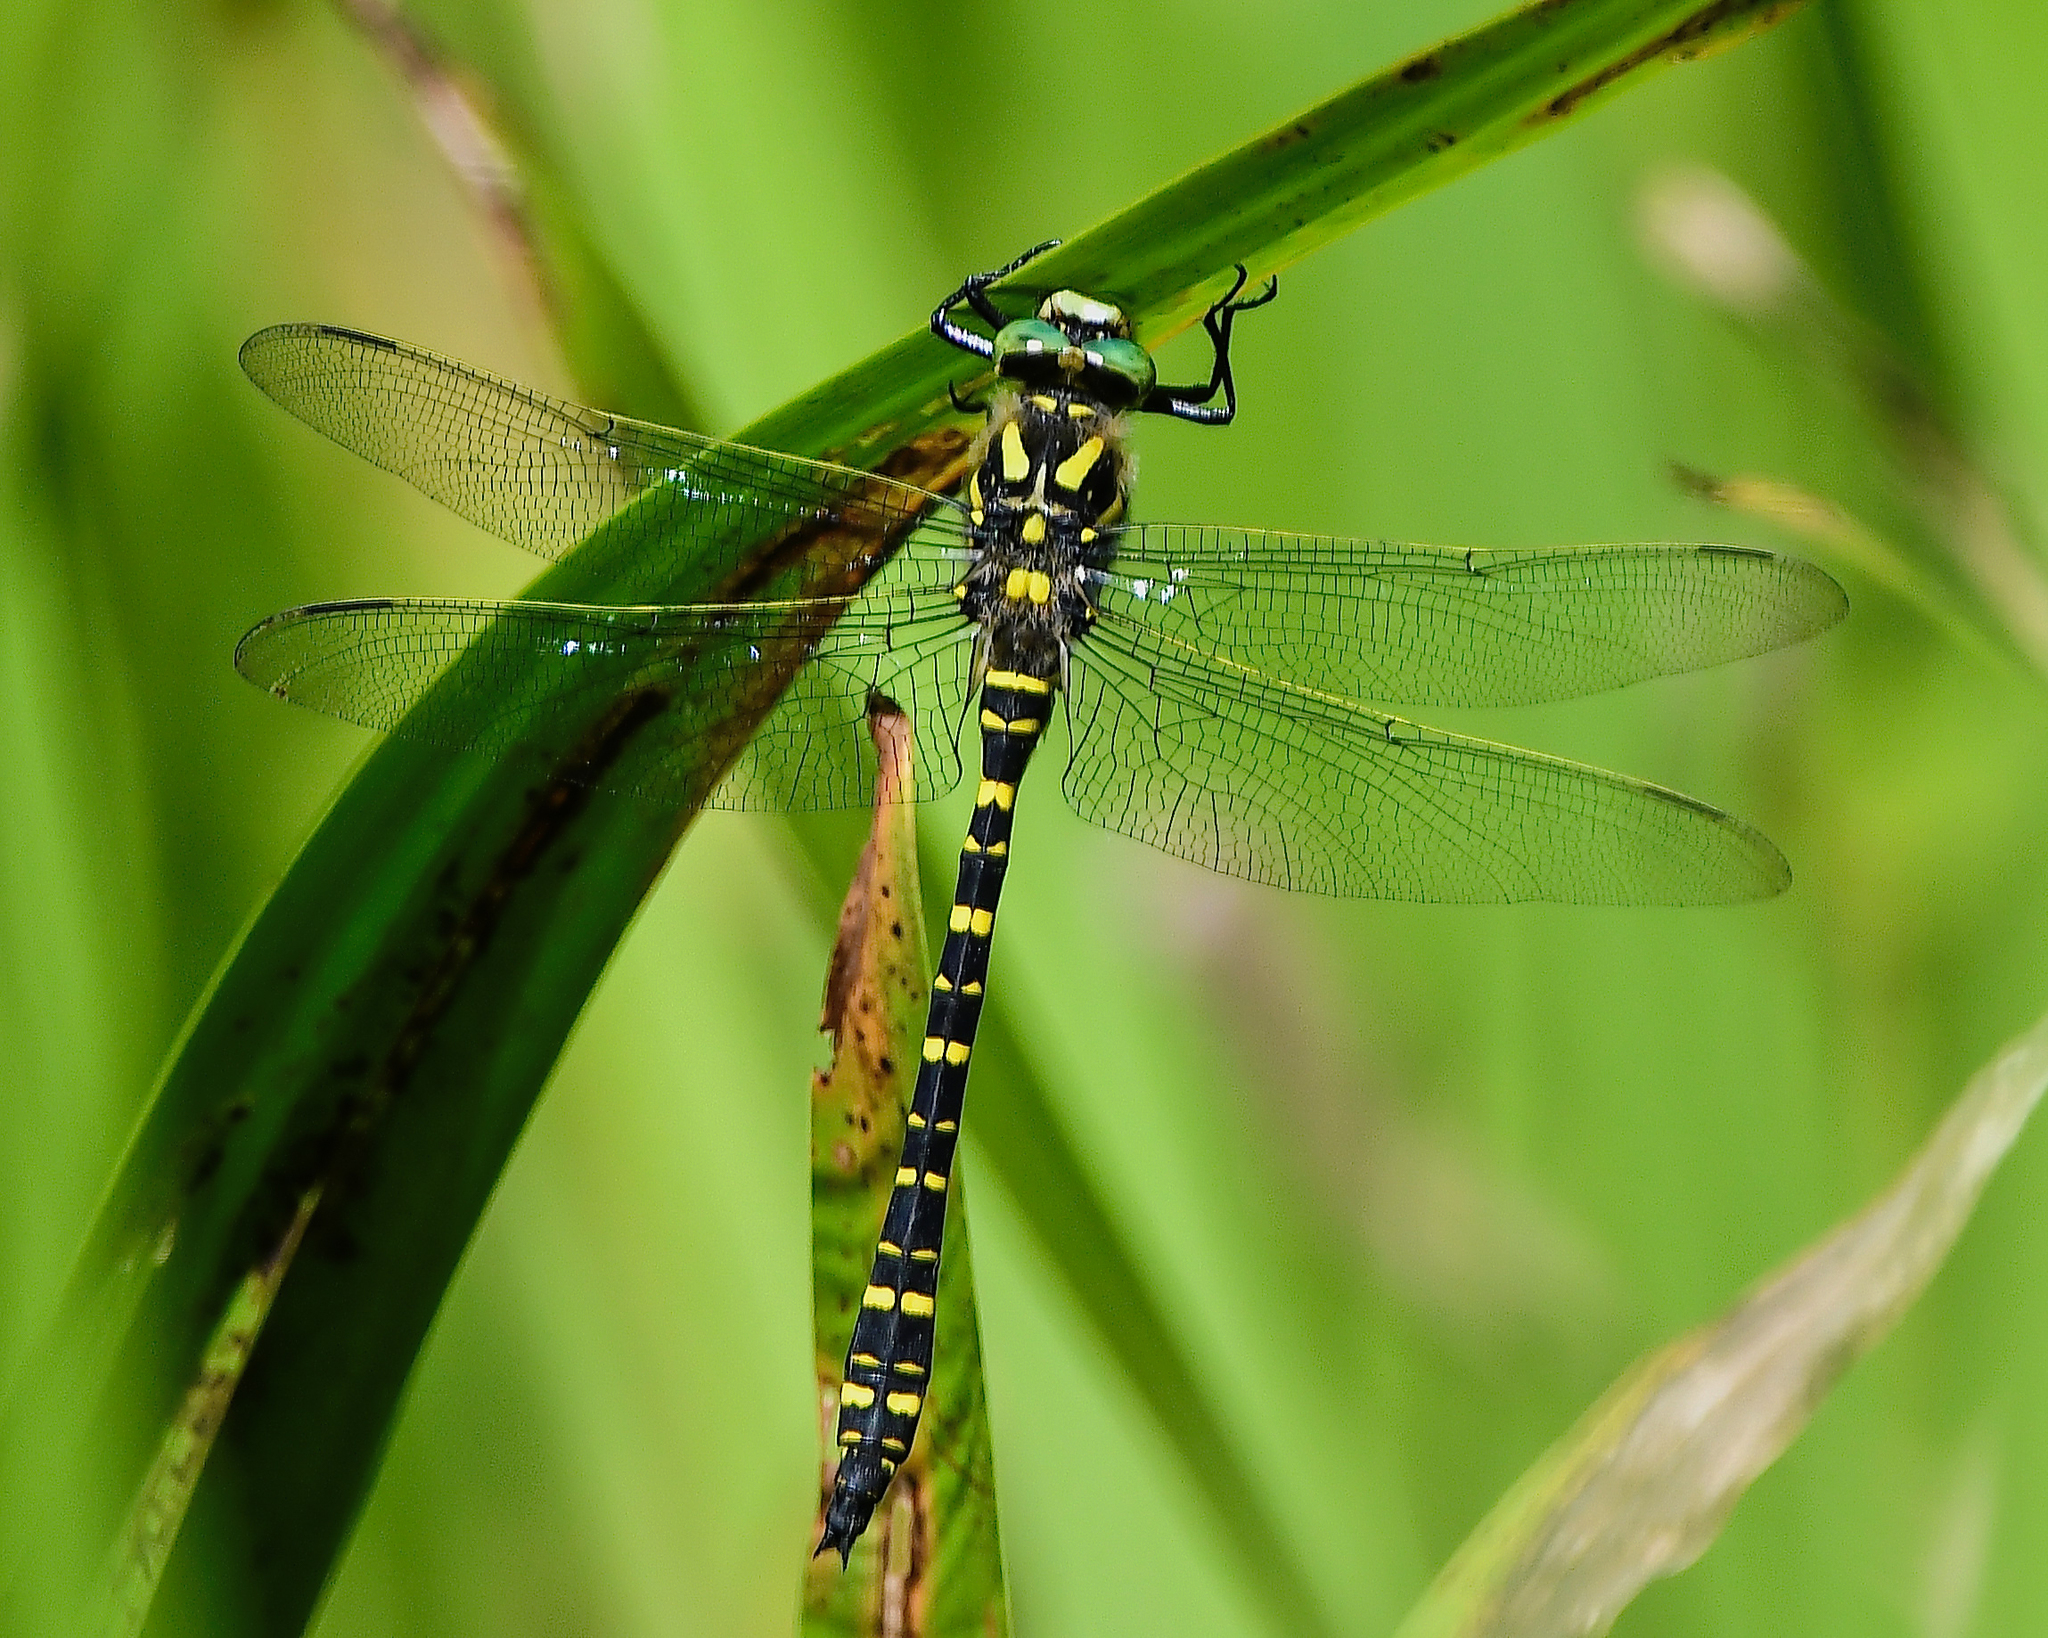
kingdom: Animalia
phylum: Arthropoda
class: Insecta
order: Odonata
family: Cordulegastridae
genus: Cordulegaster
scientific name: Cordulegaster boltonii
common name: Golden-ringed dragonfly
